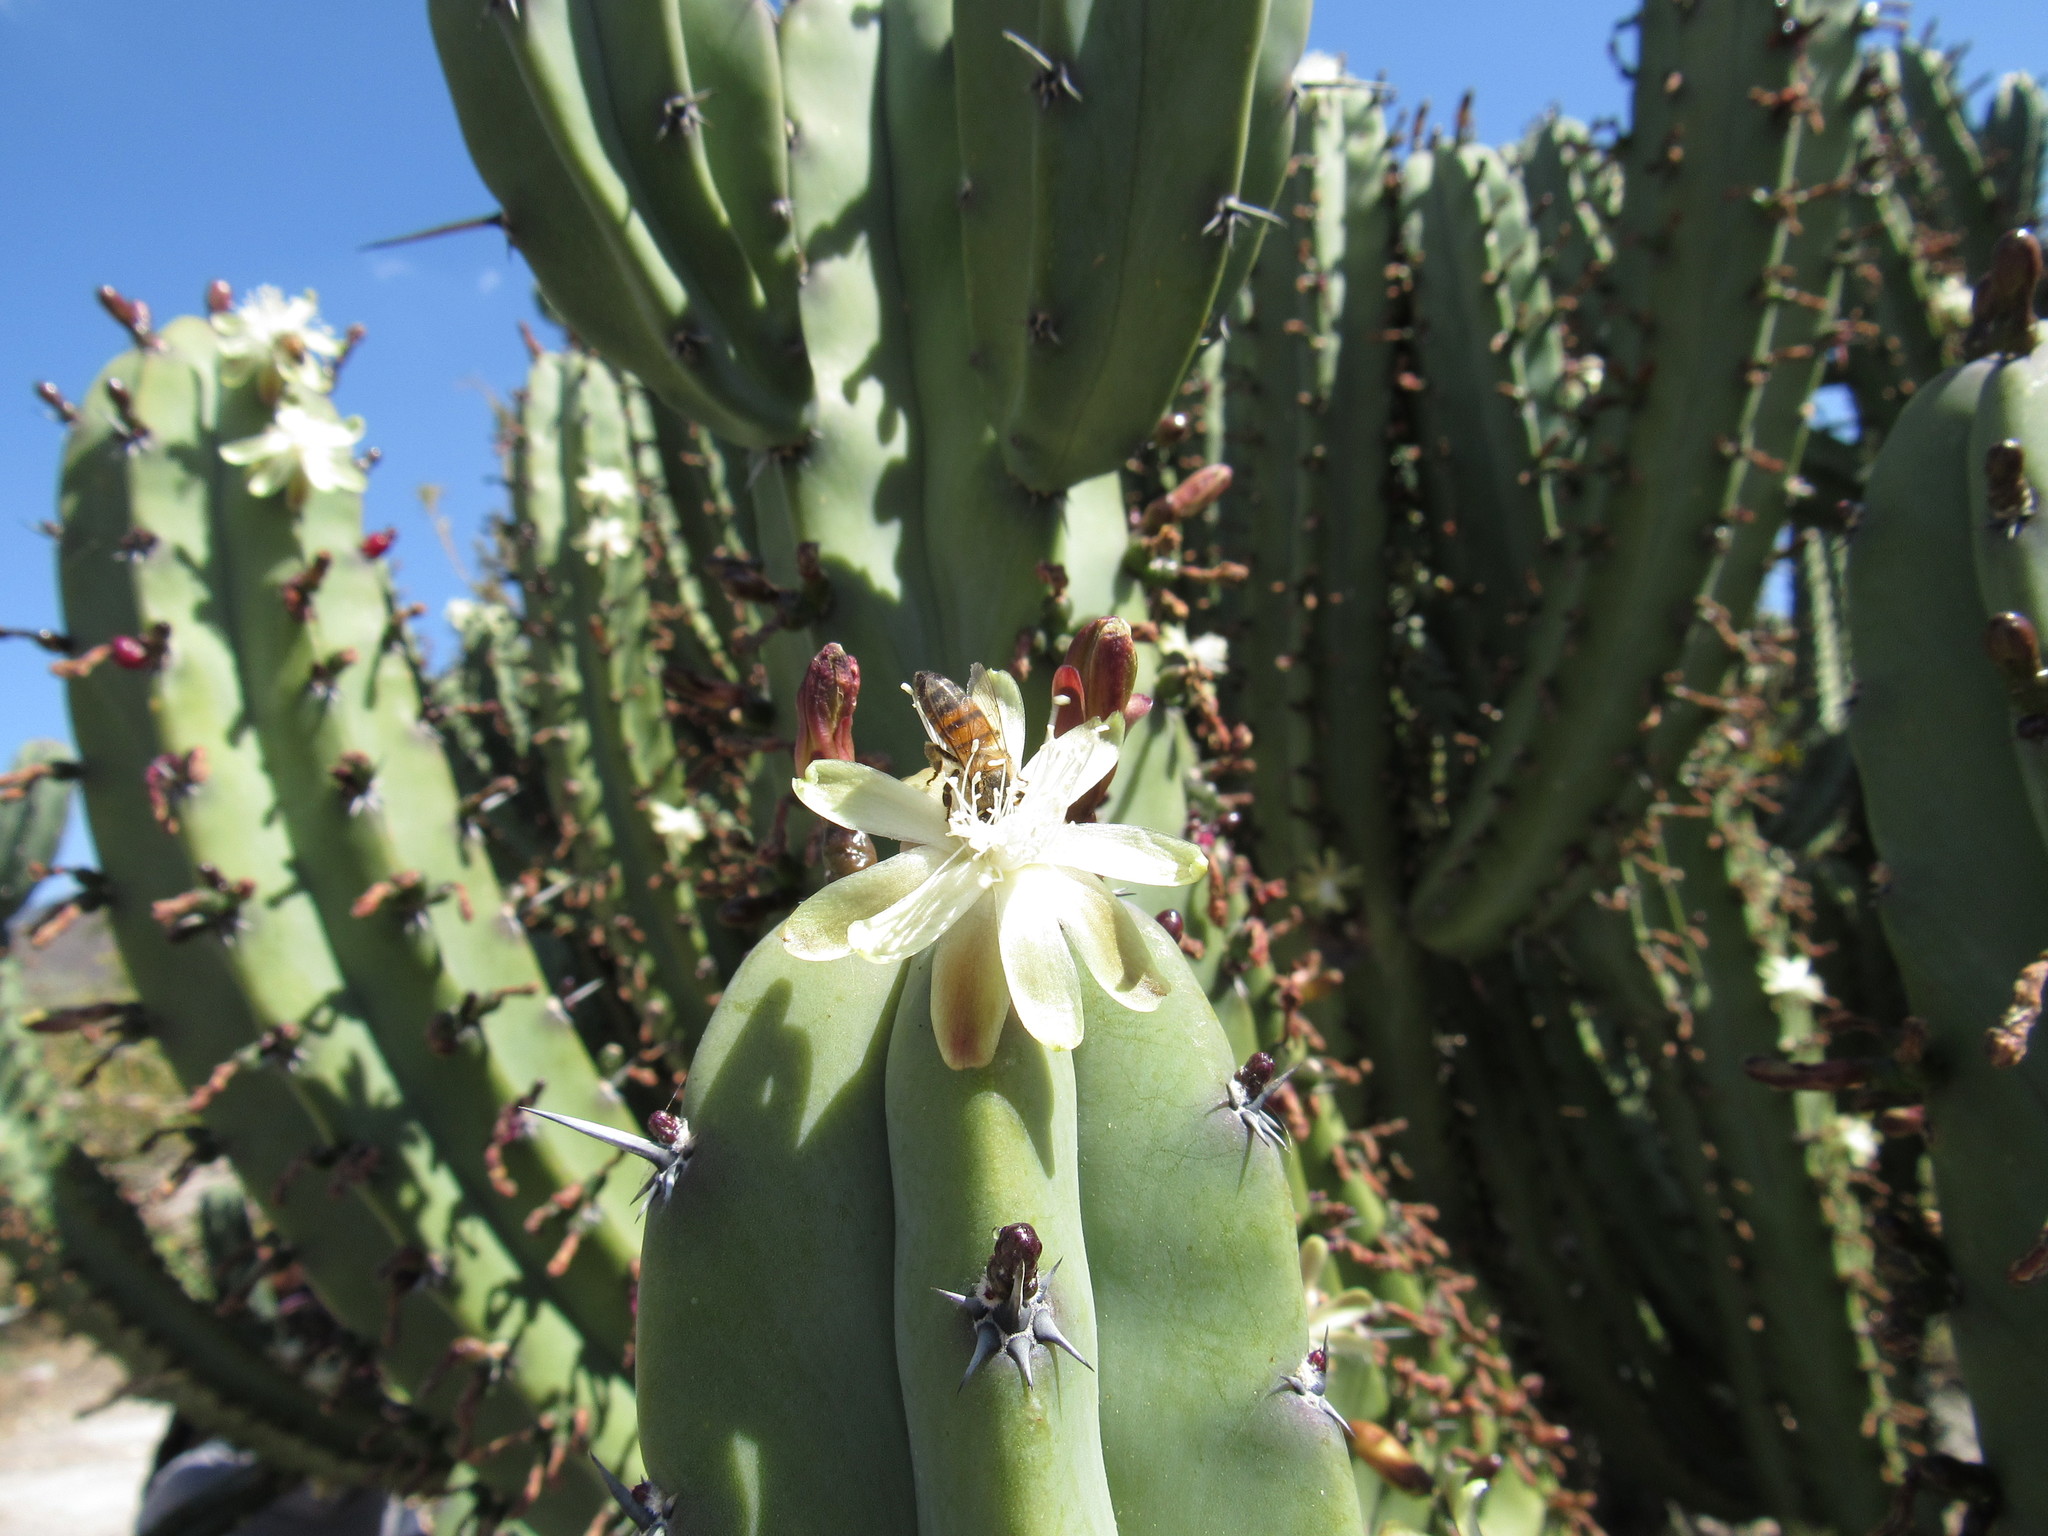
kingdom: Plantae
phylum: Tracheophyta
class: Magnoliopsida
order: Caryophyllales
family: Cactaceae
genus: Myrtillocactus
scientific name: Myrtillocactus geometrizans
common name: Bilberry cactus
